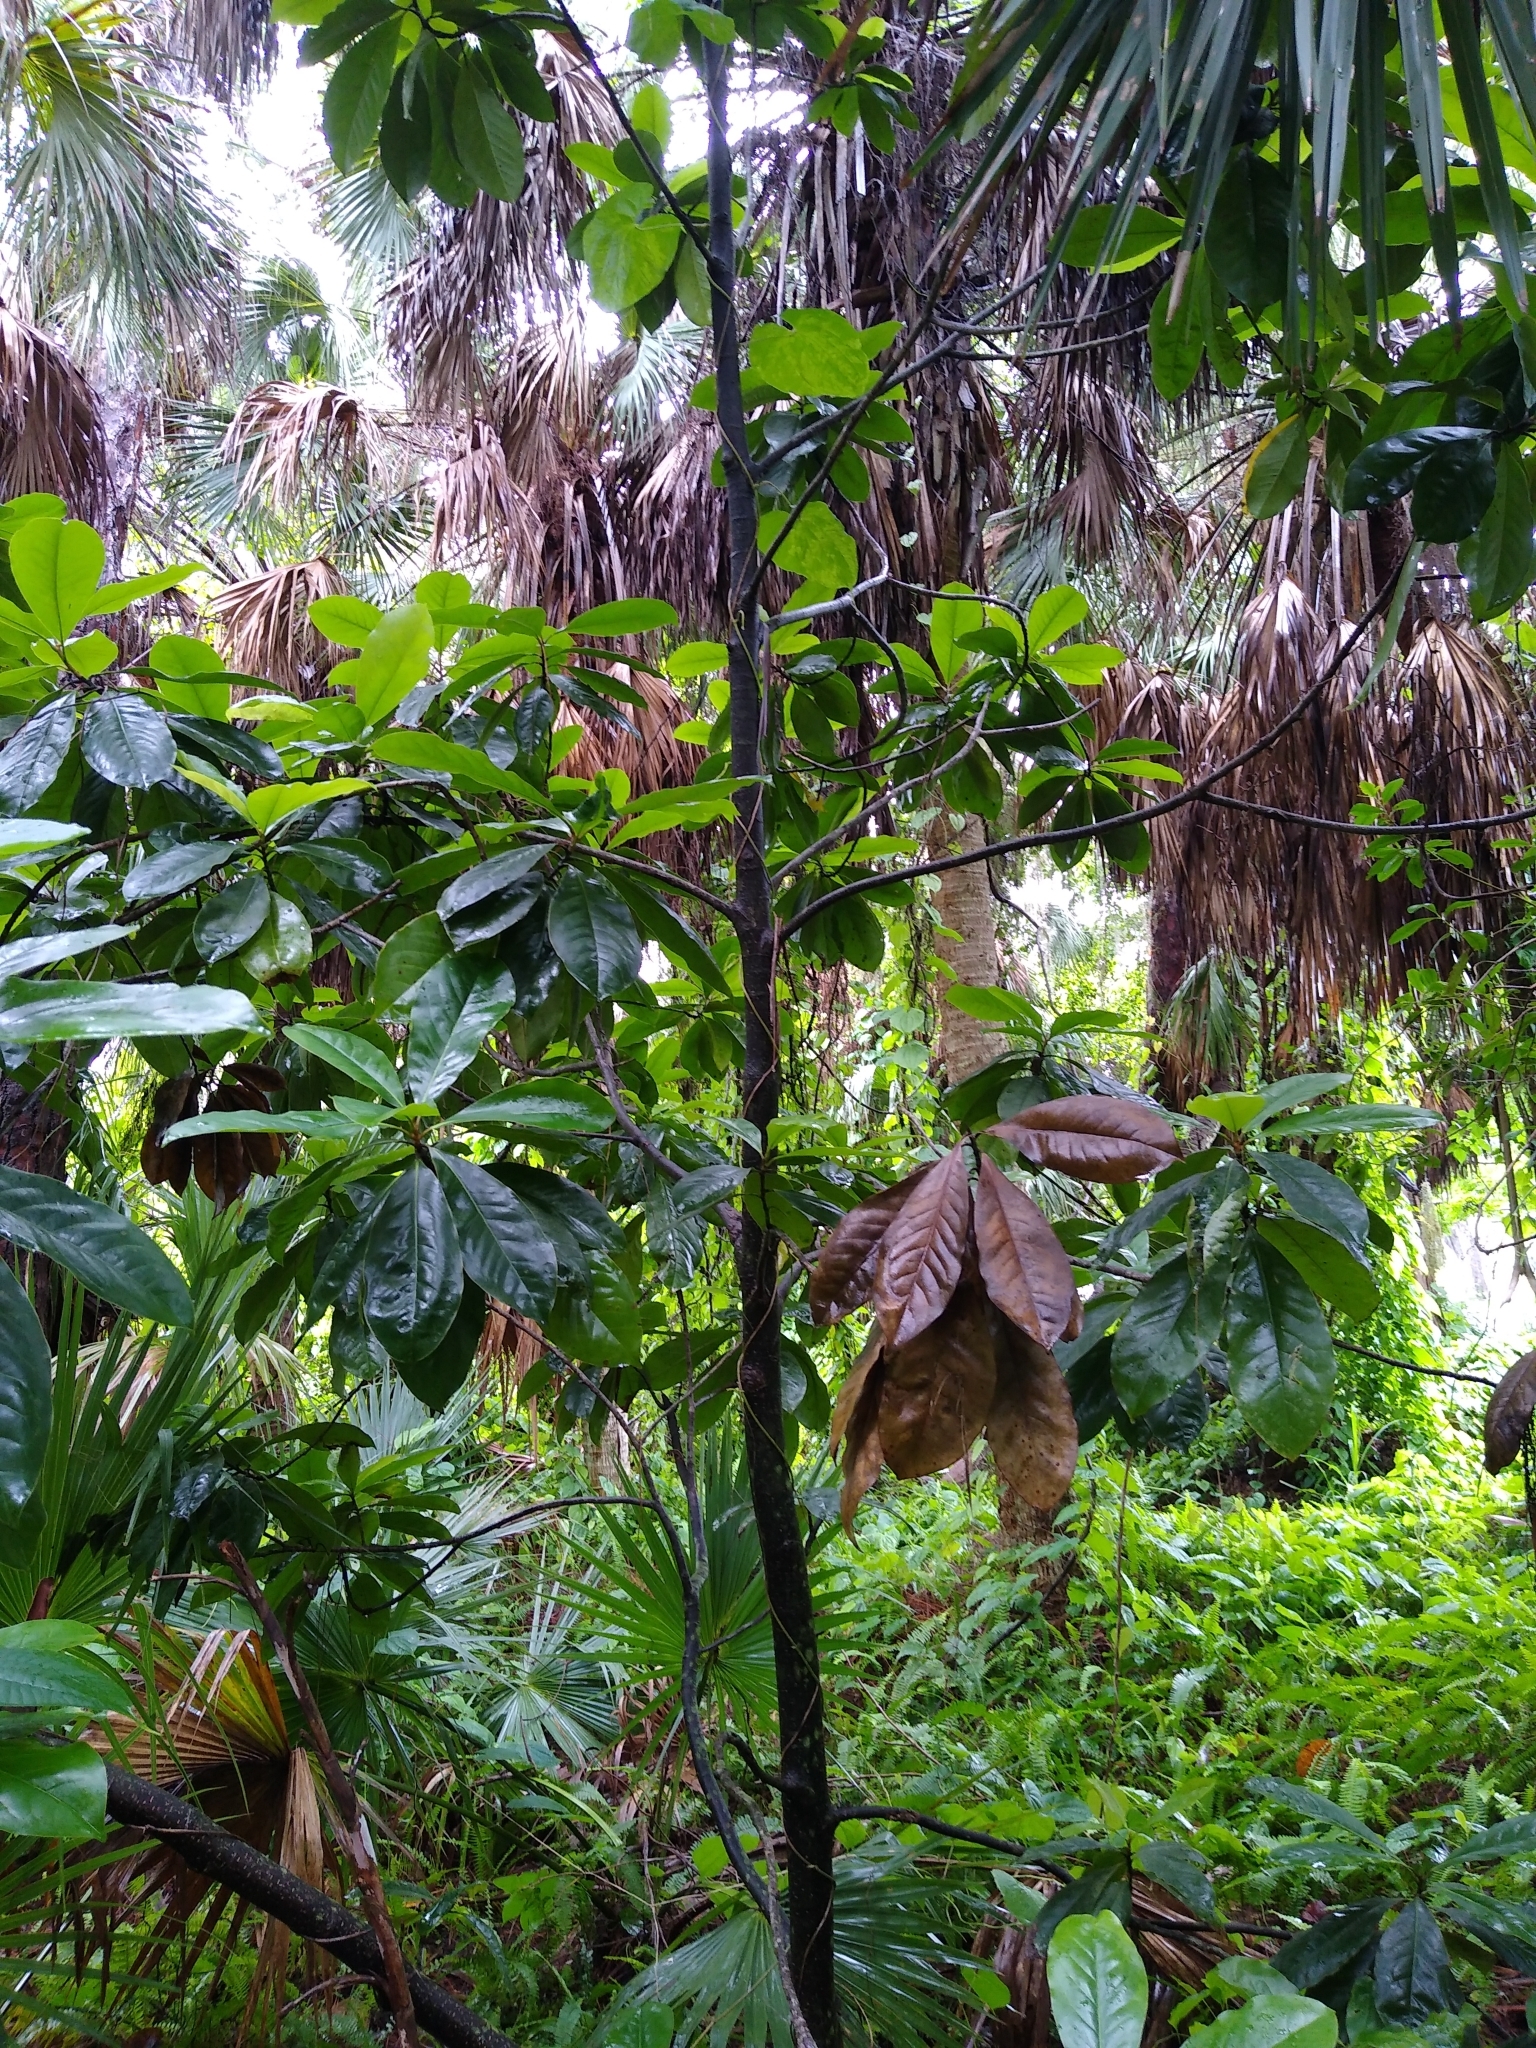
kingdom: Plantae
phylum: Tracheophyta
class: Magnoliopsida
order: Magnoliales
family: Magnoliaceae
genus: Magnolia
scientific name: Magnolia grandiflora
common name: Southern magnolia
